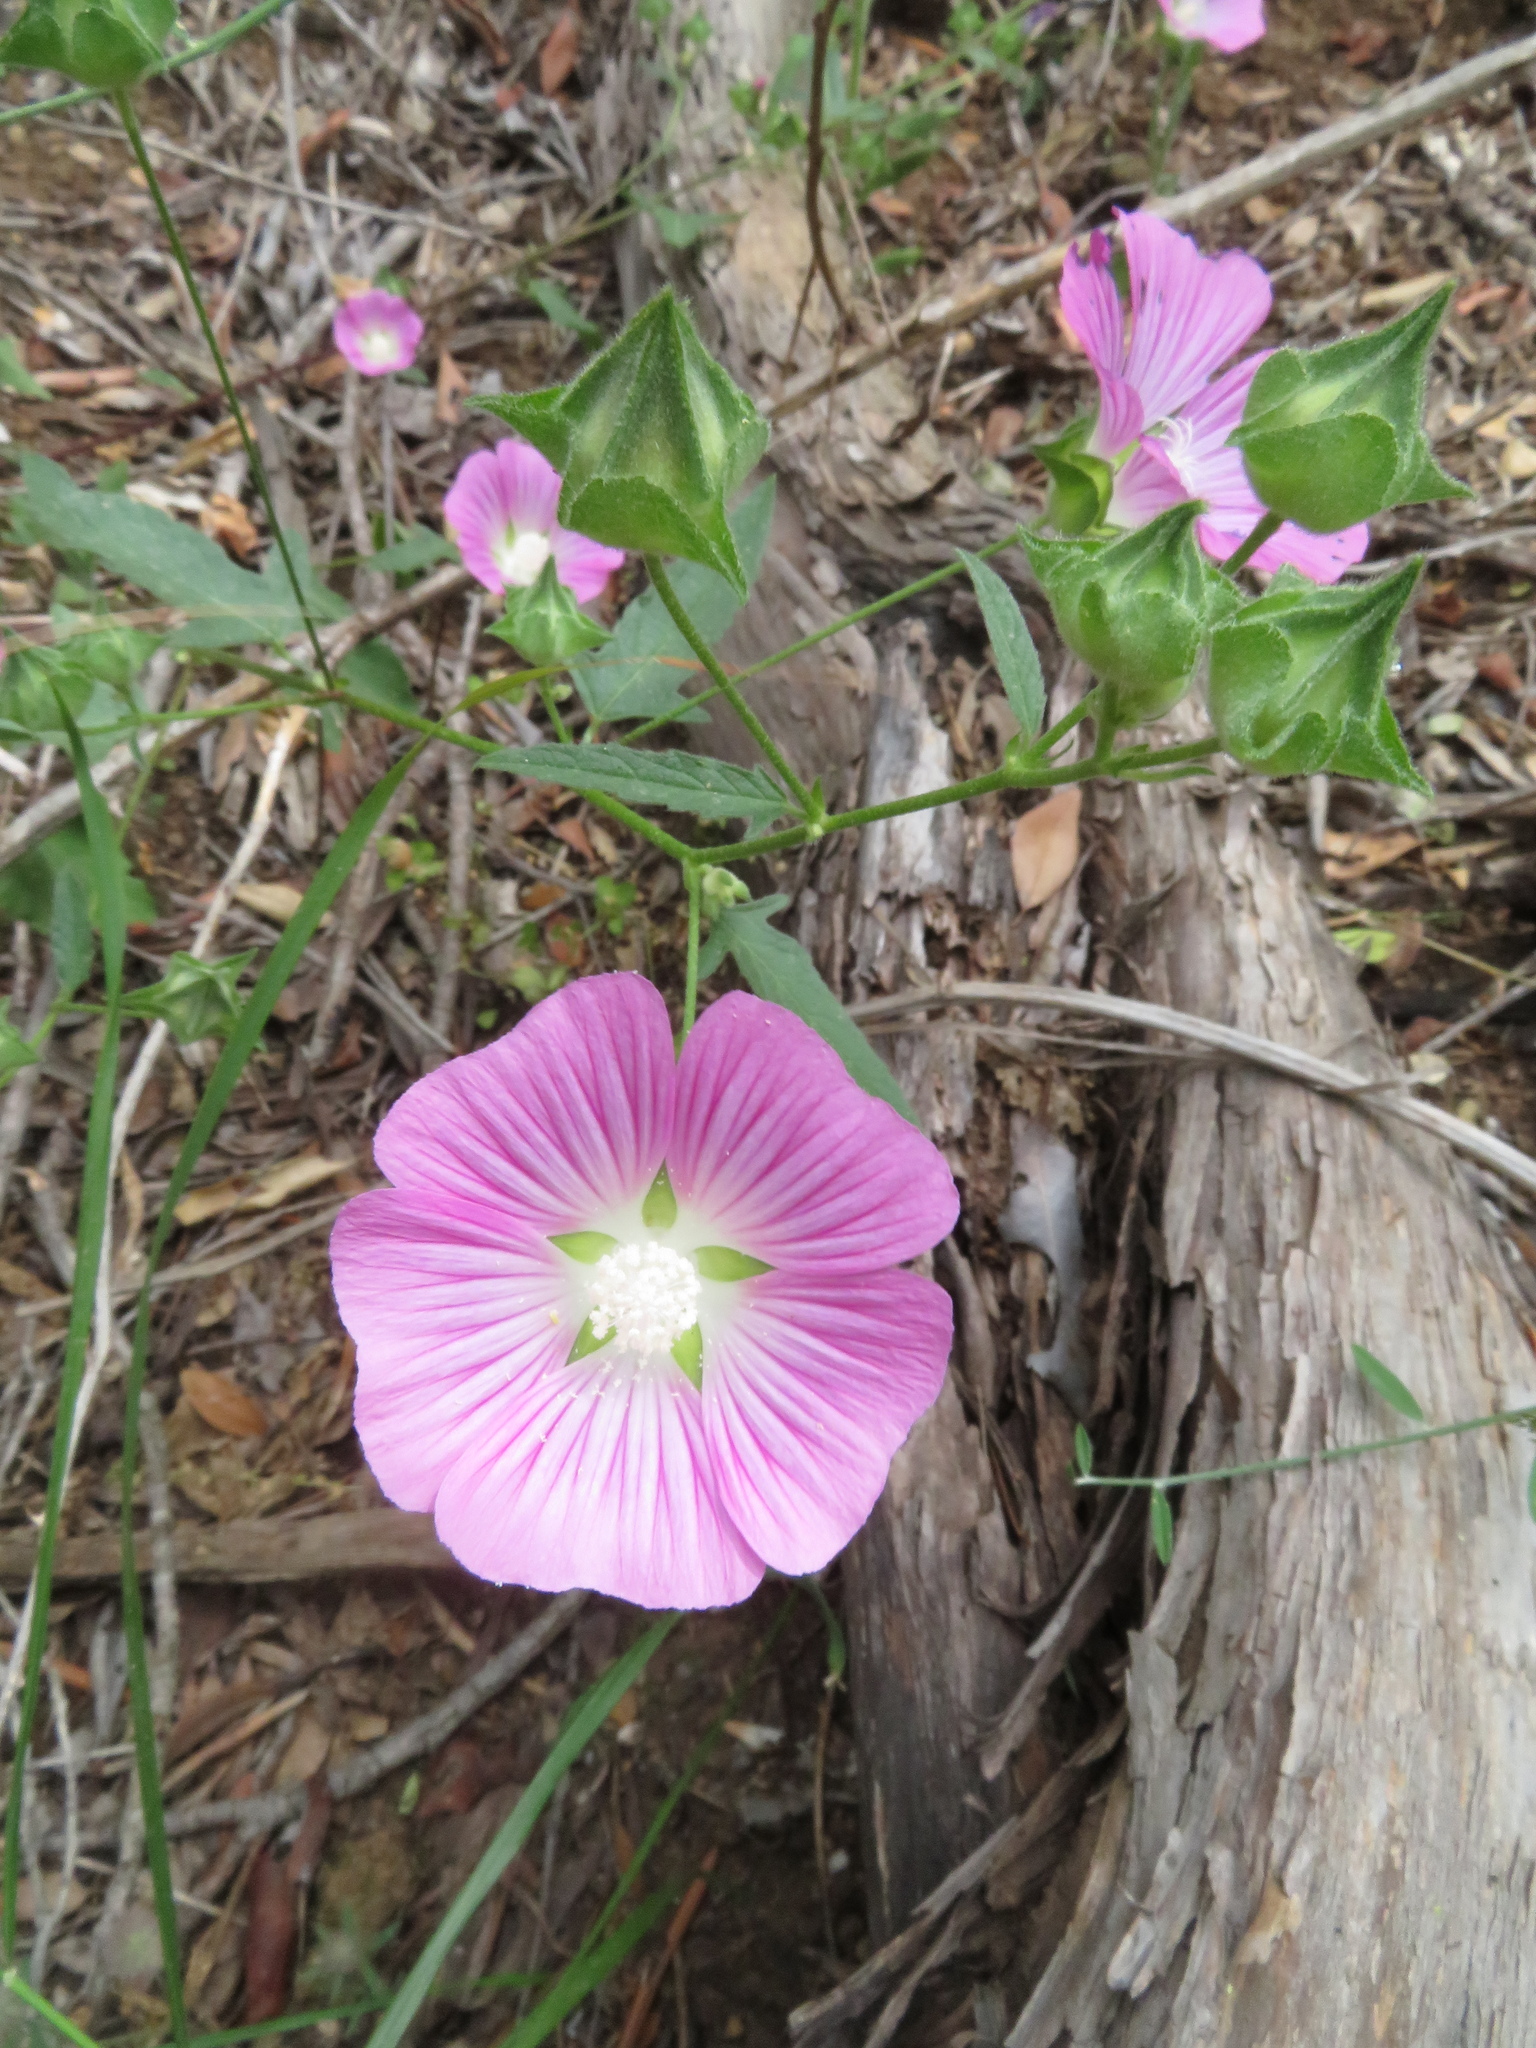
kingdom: Plantae
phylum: Tracheophyta
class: Magnoliopsida
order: Malvales
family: Malvaceae
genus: Malva
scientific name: Malva punctata
